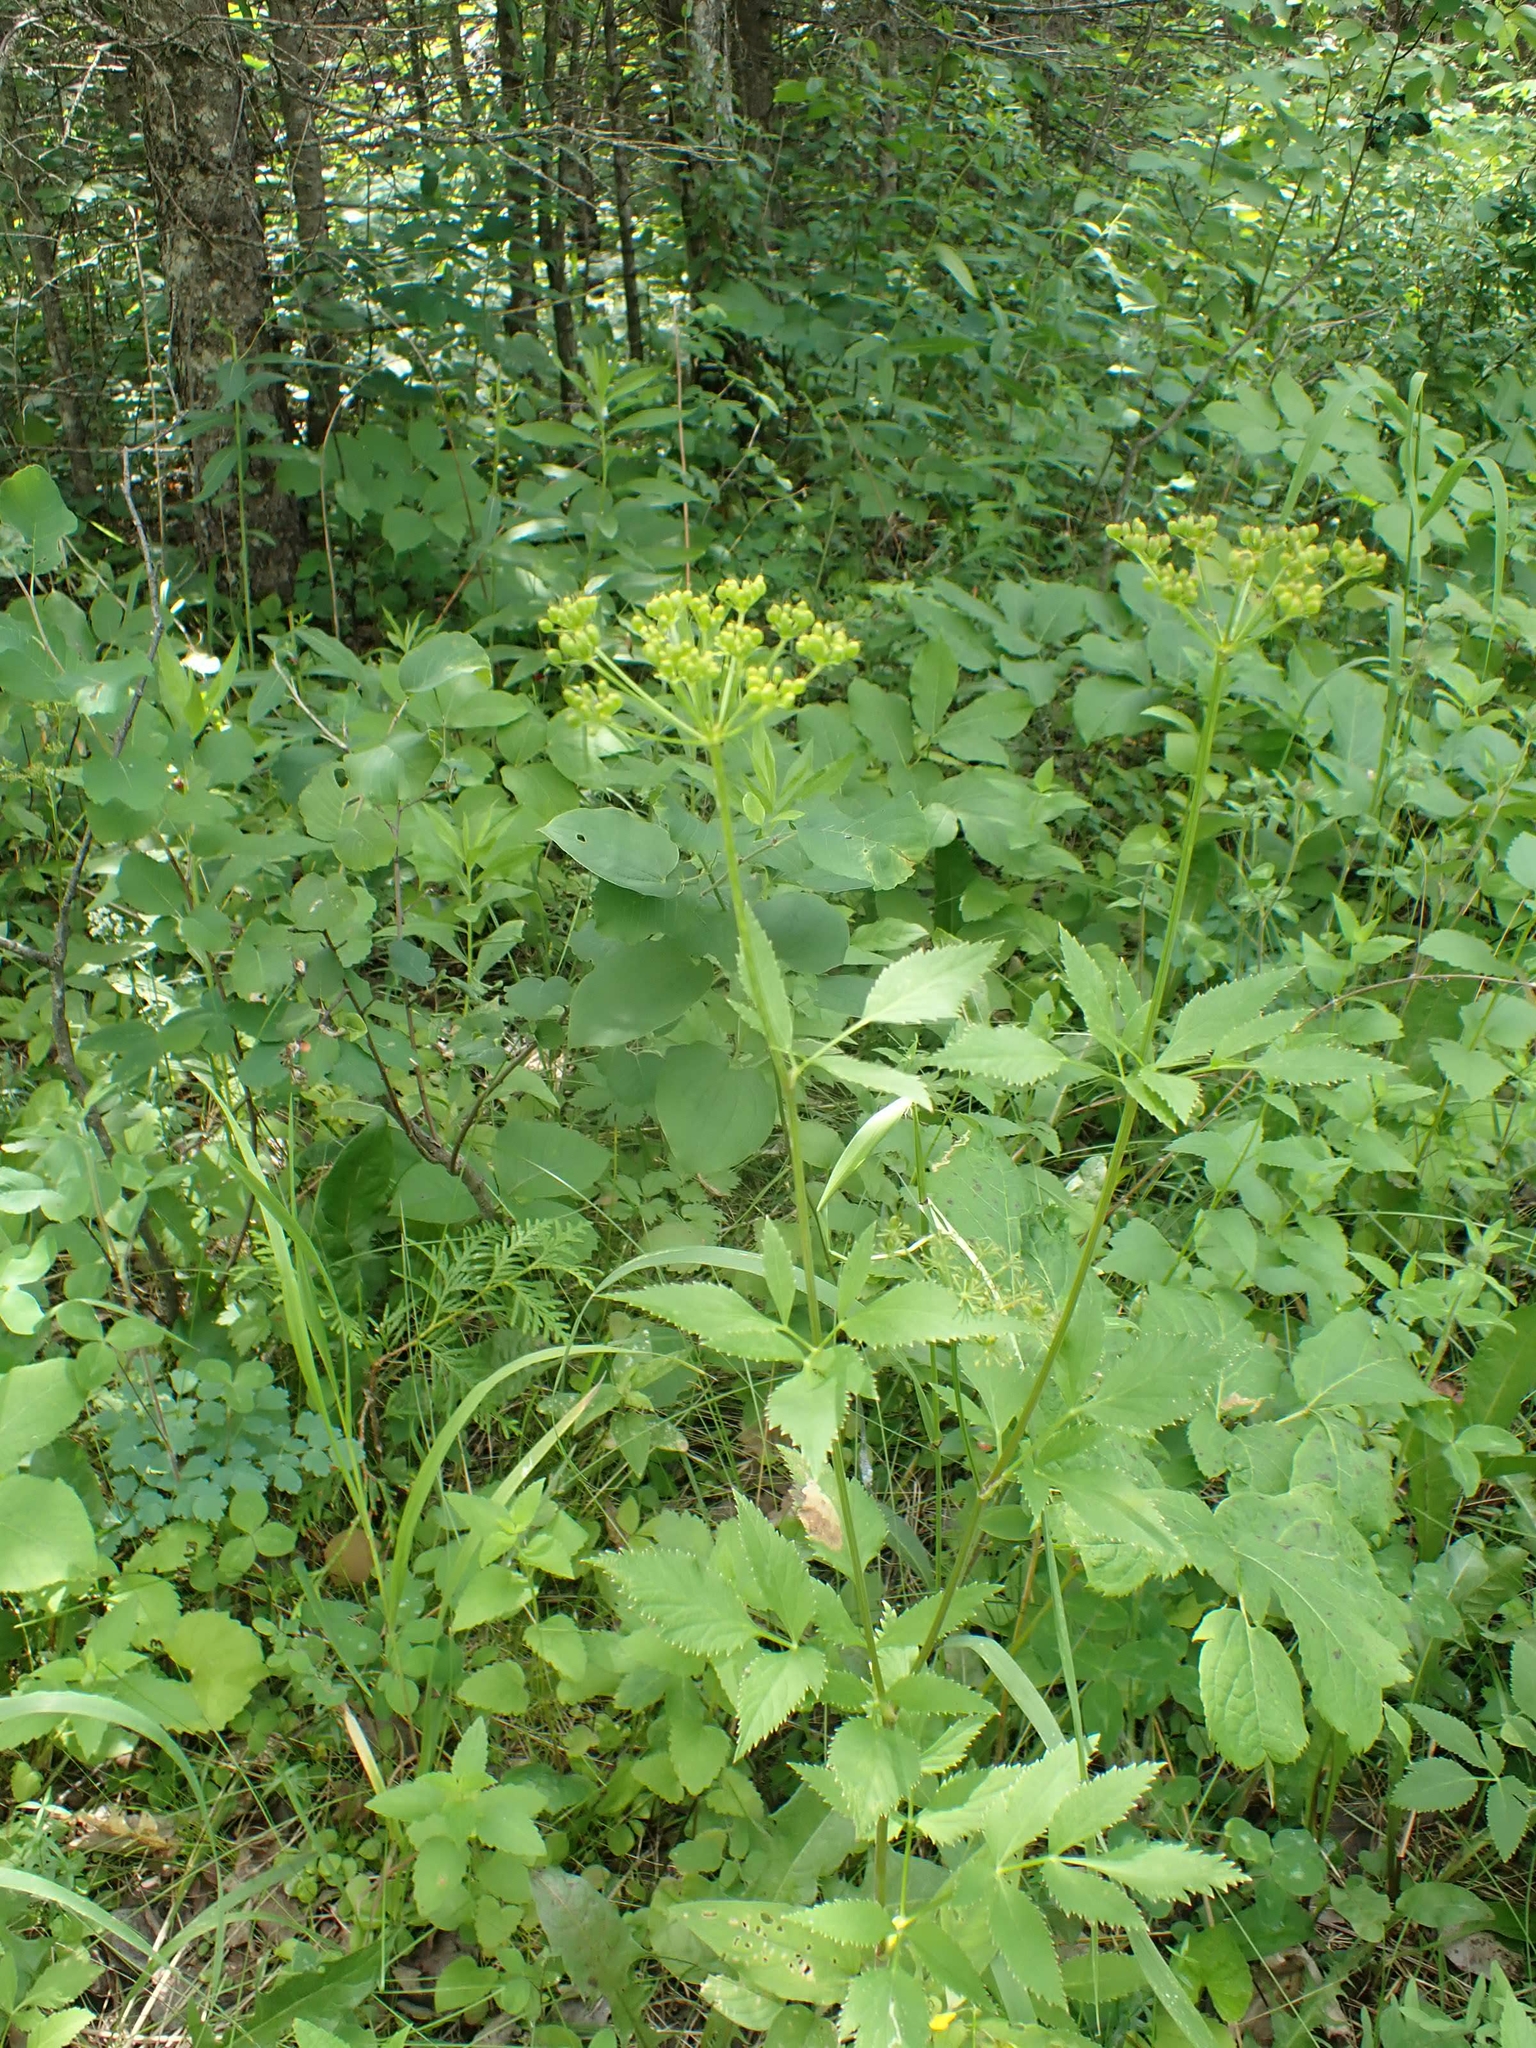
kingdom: Plantae
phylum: Tracheophyta
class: Magnoliopsida
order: Apiales
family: Apiaceae
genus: Zizia
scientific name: Zizia aurea
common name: Golden alexanders
